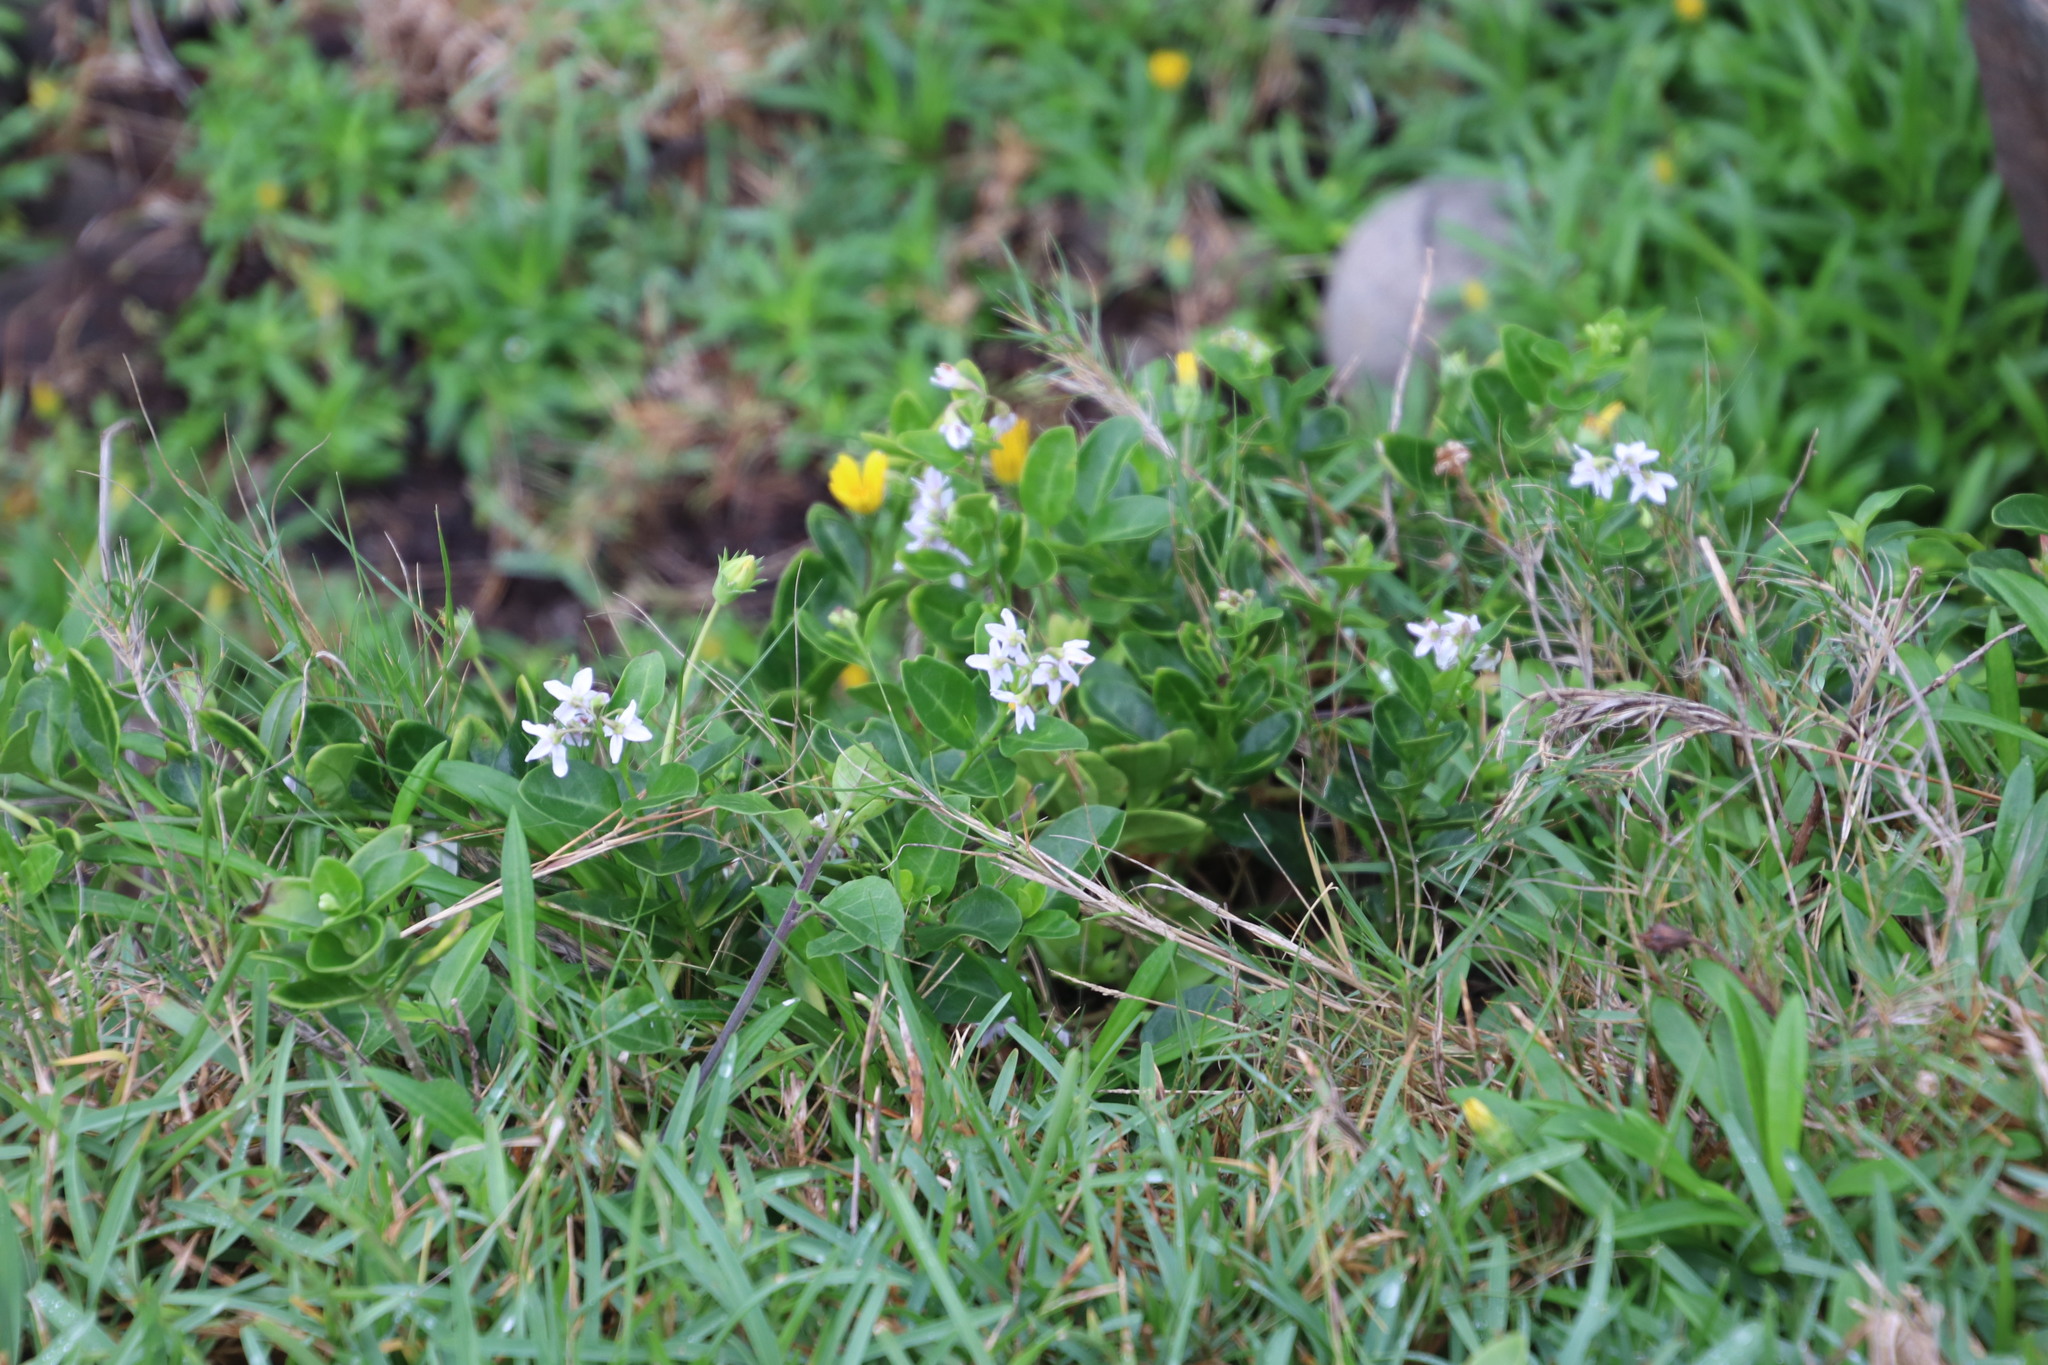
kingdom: Plantae
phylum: Tracheophyta
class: Magnoliopsida
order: Solanales
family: Solanaceae
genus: Solanum
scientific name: Solanum africanum
